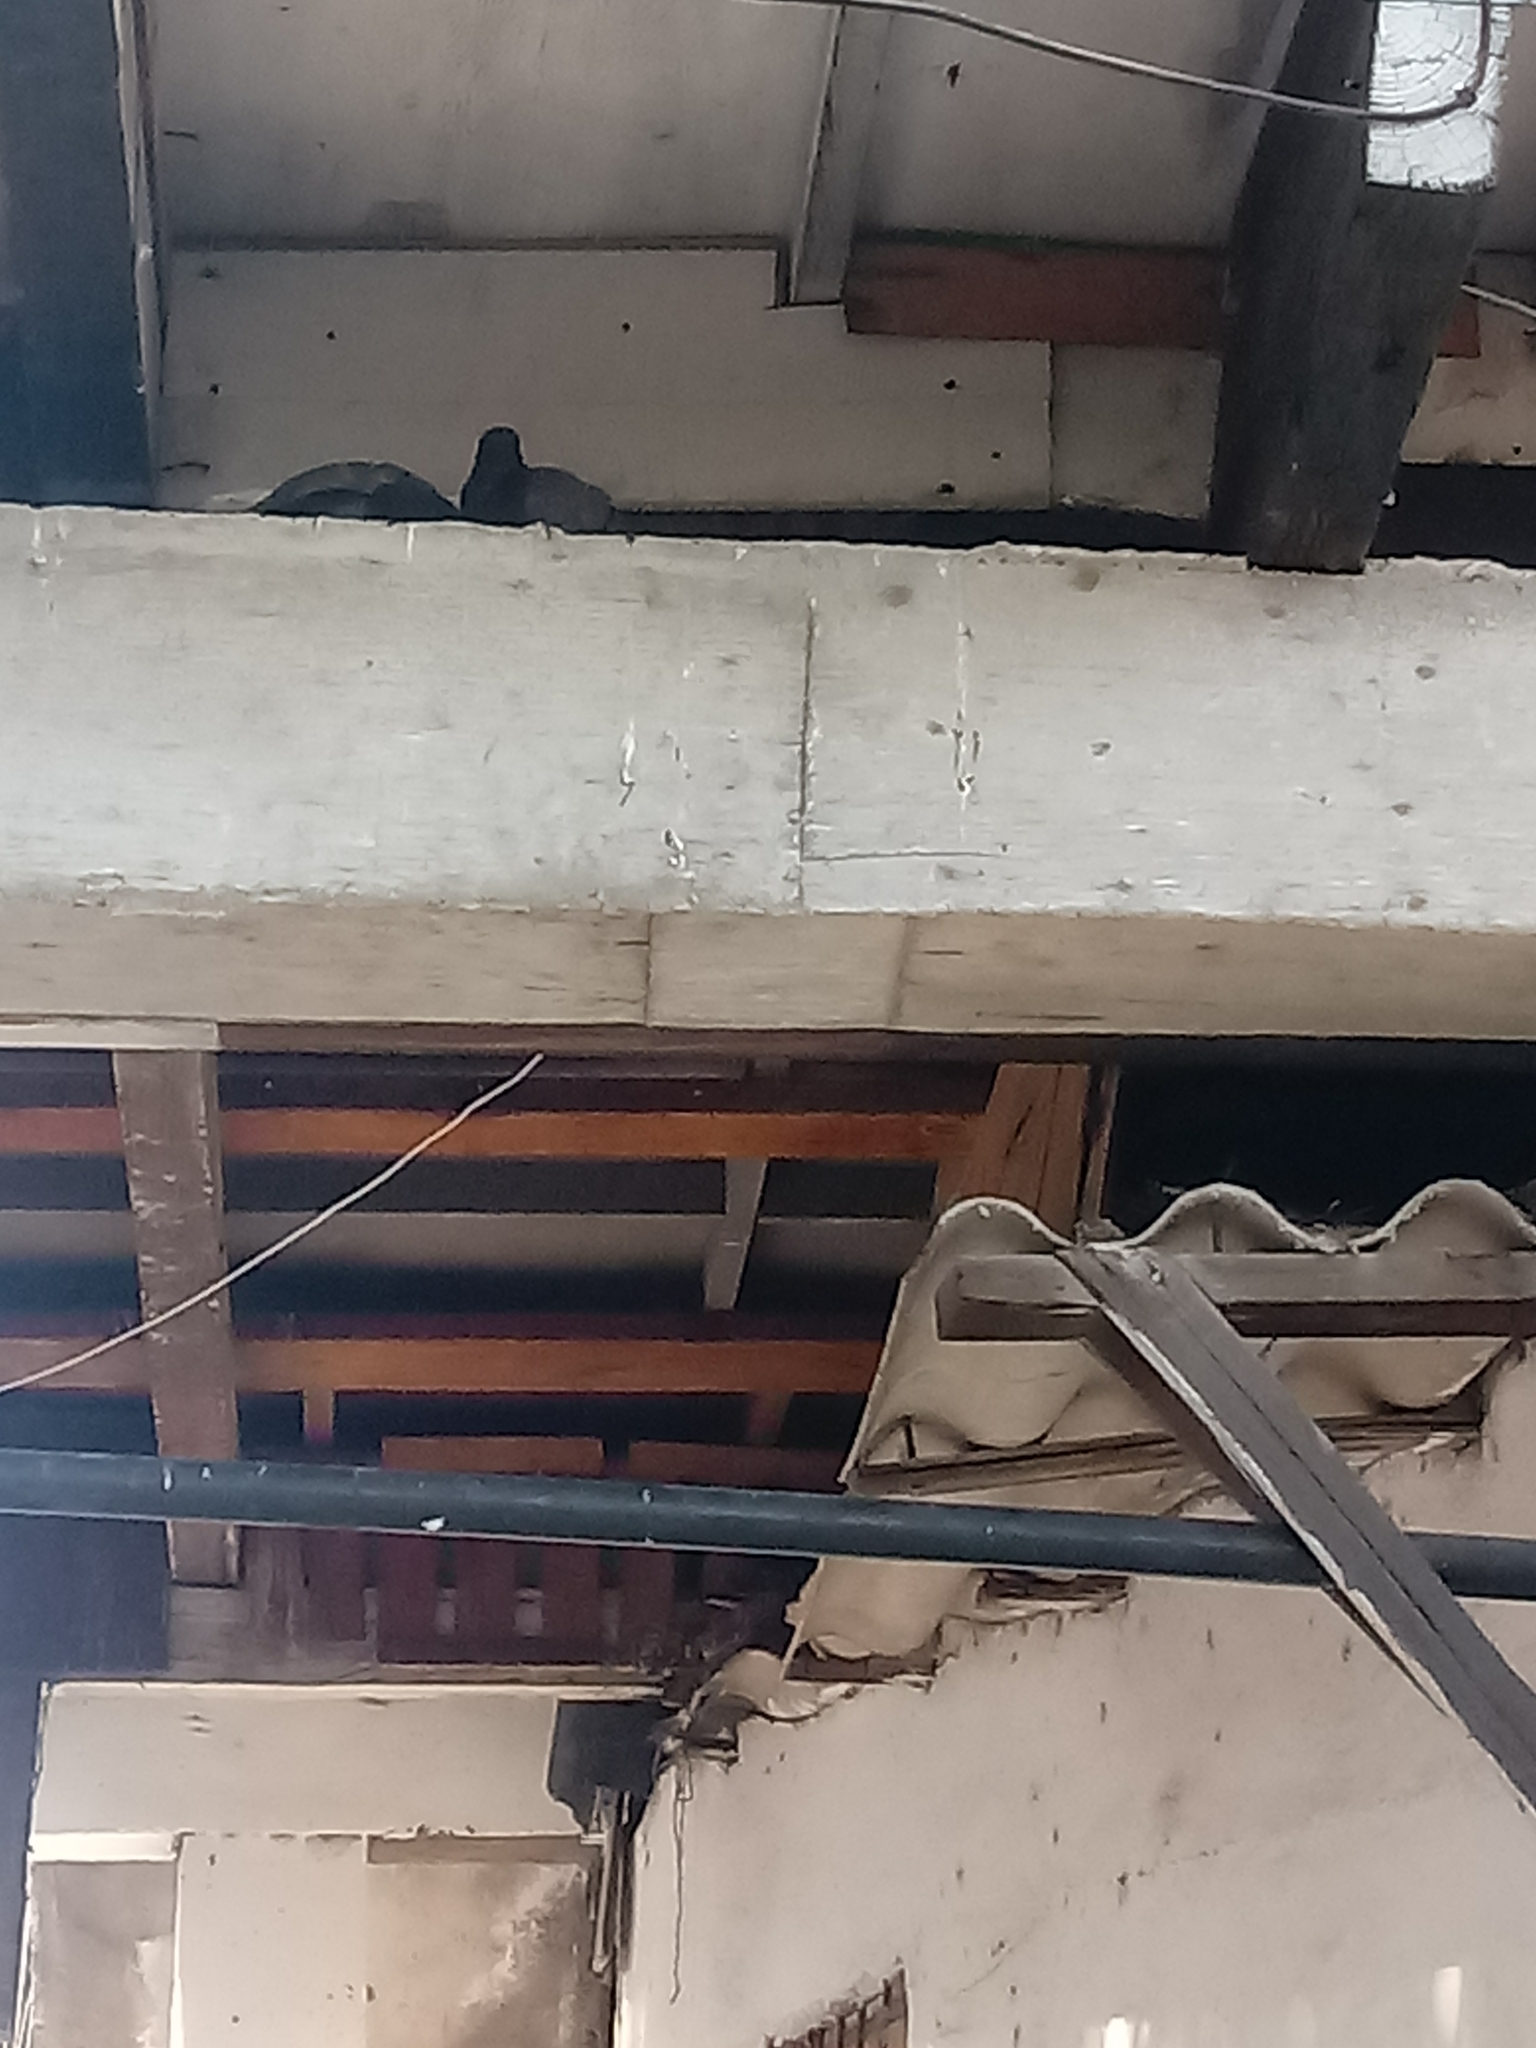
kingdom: Animalia
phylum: Chordata
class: Aves
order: Columbiformes
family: Columbidae
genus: Columba
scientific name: Columba livia
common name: Rock pigeon
